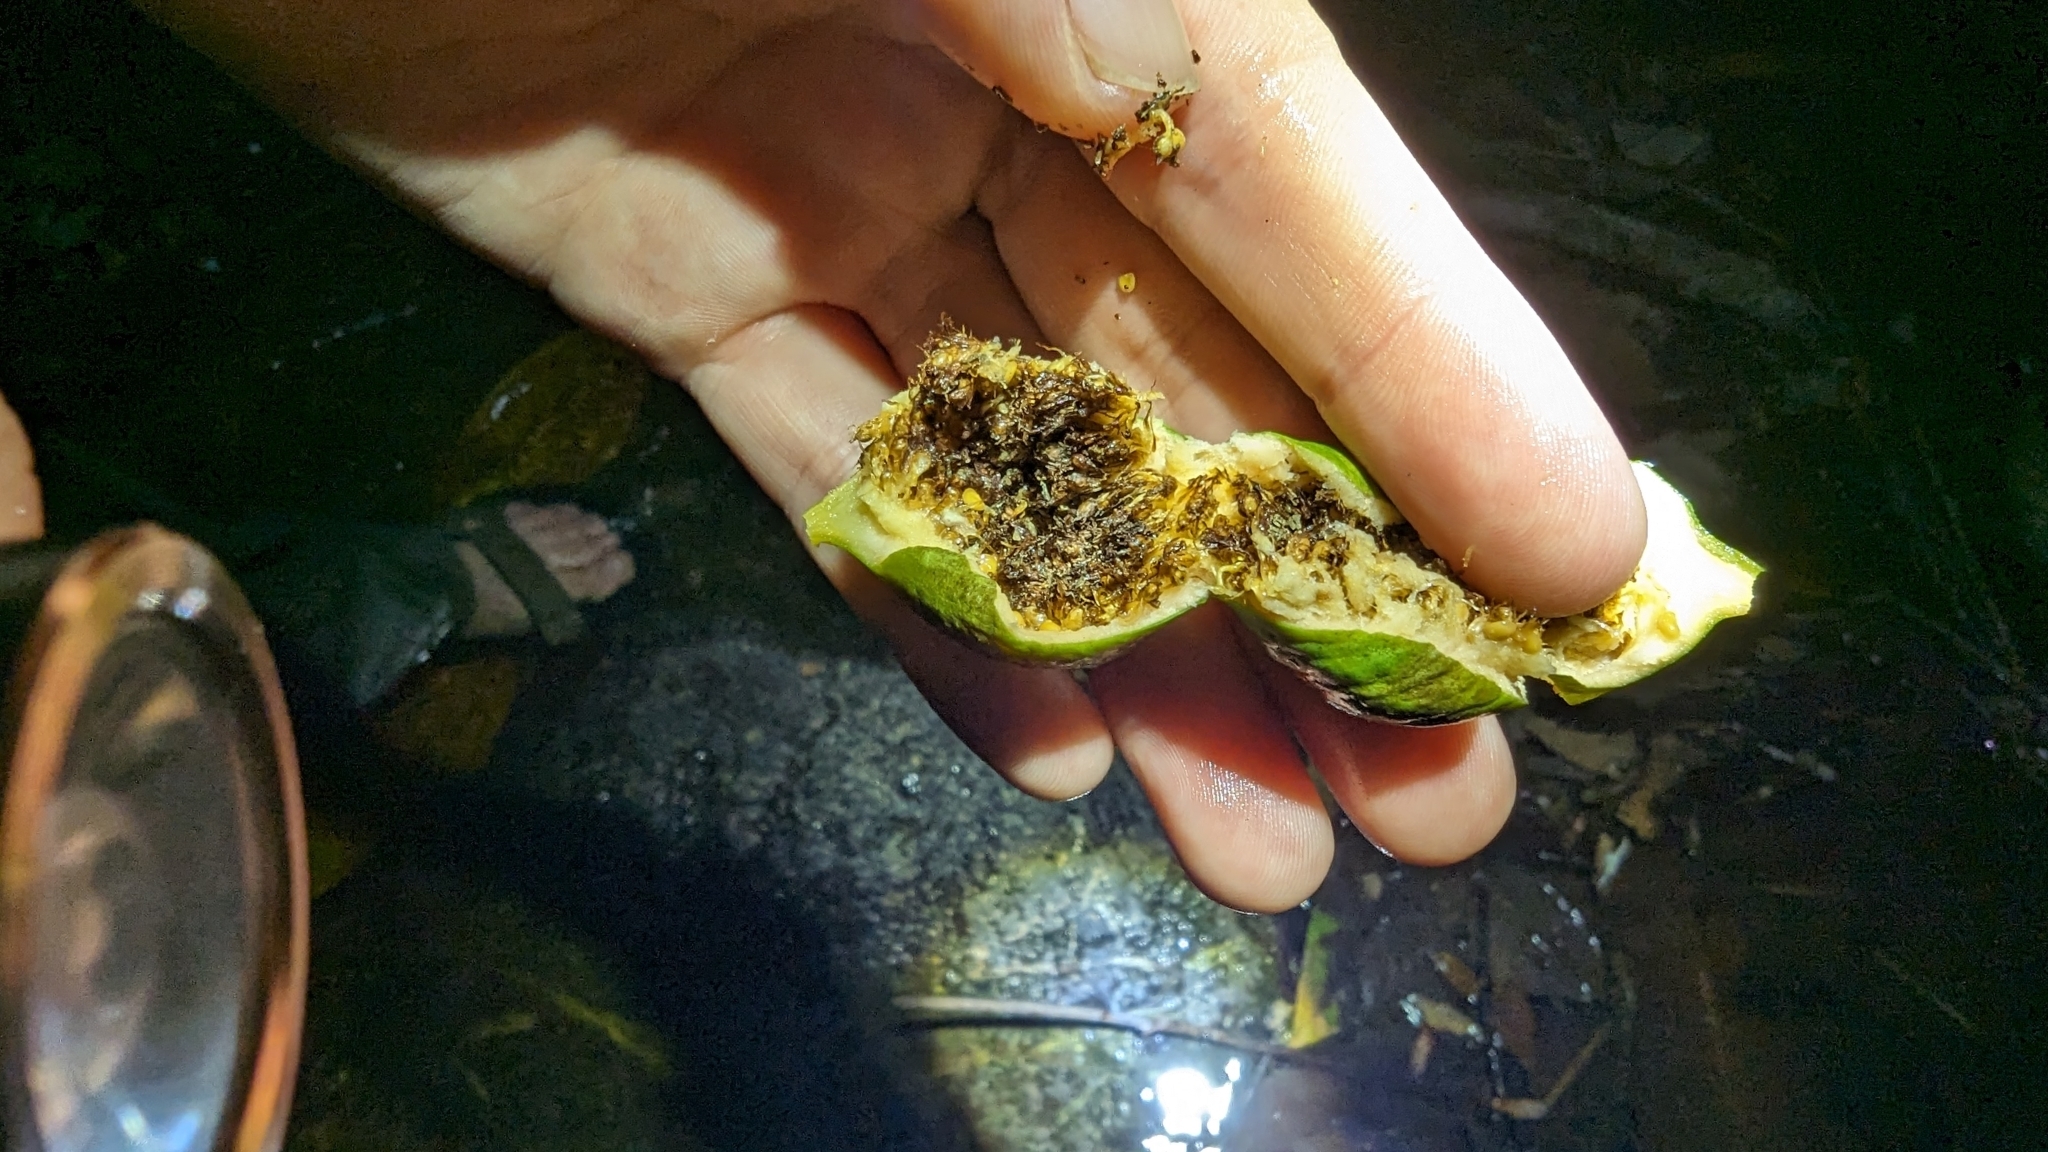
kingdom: Plantae
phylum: Tracheophyta
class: Magnoliopsida
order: Rosales
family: Moraceae
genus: Ficus
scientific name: Ficus insipida
